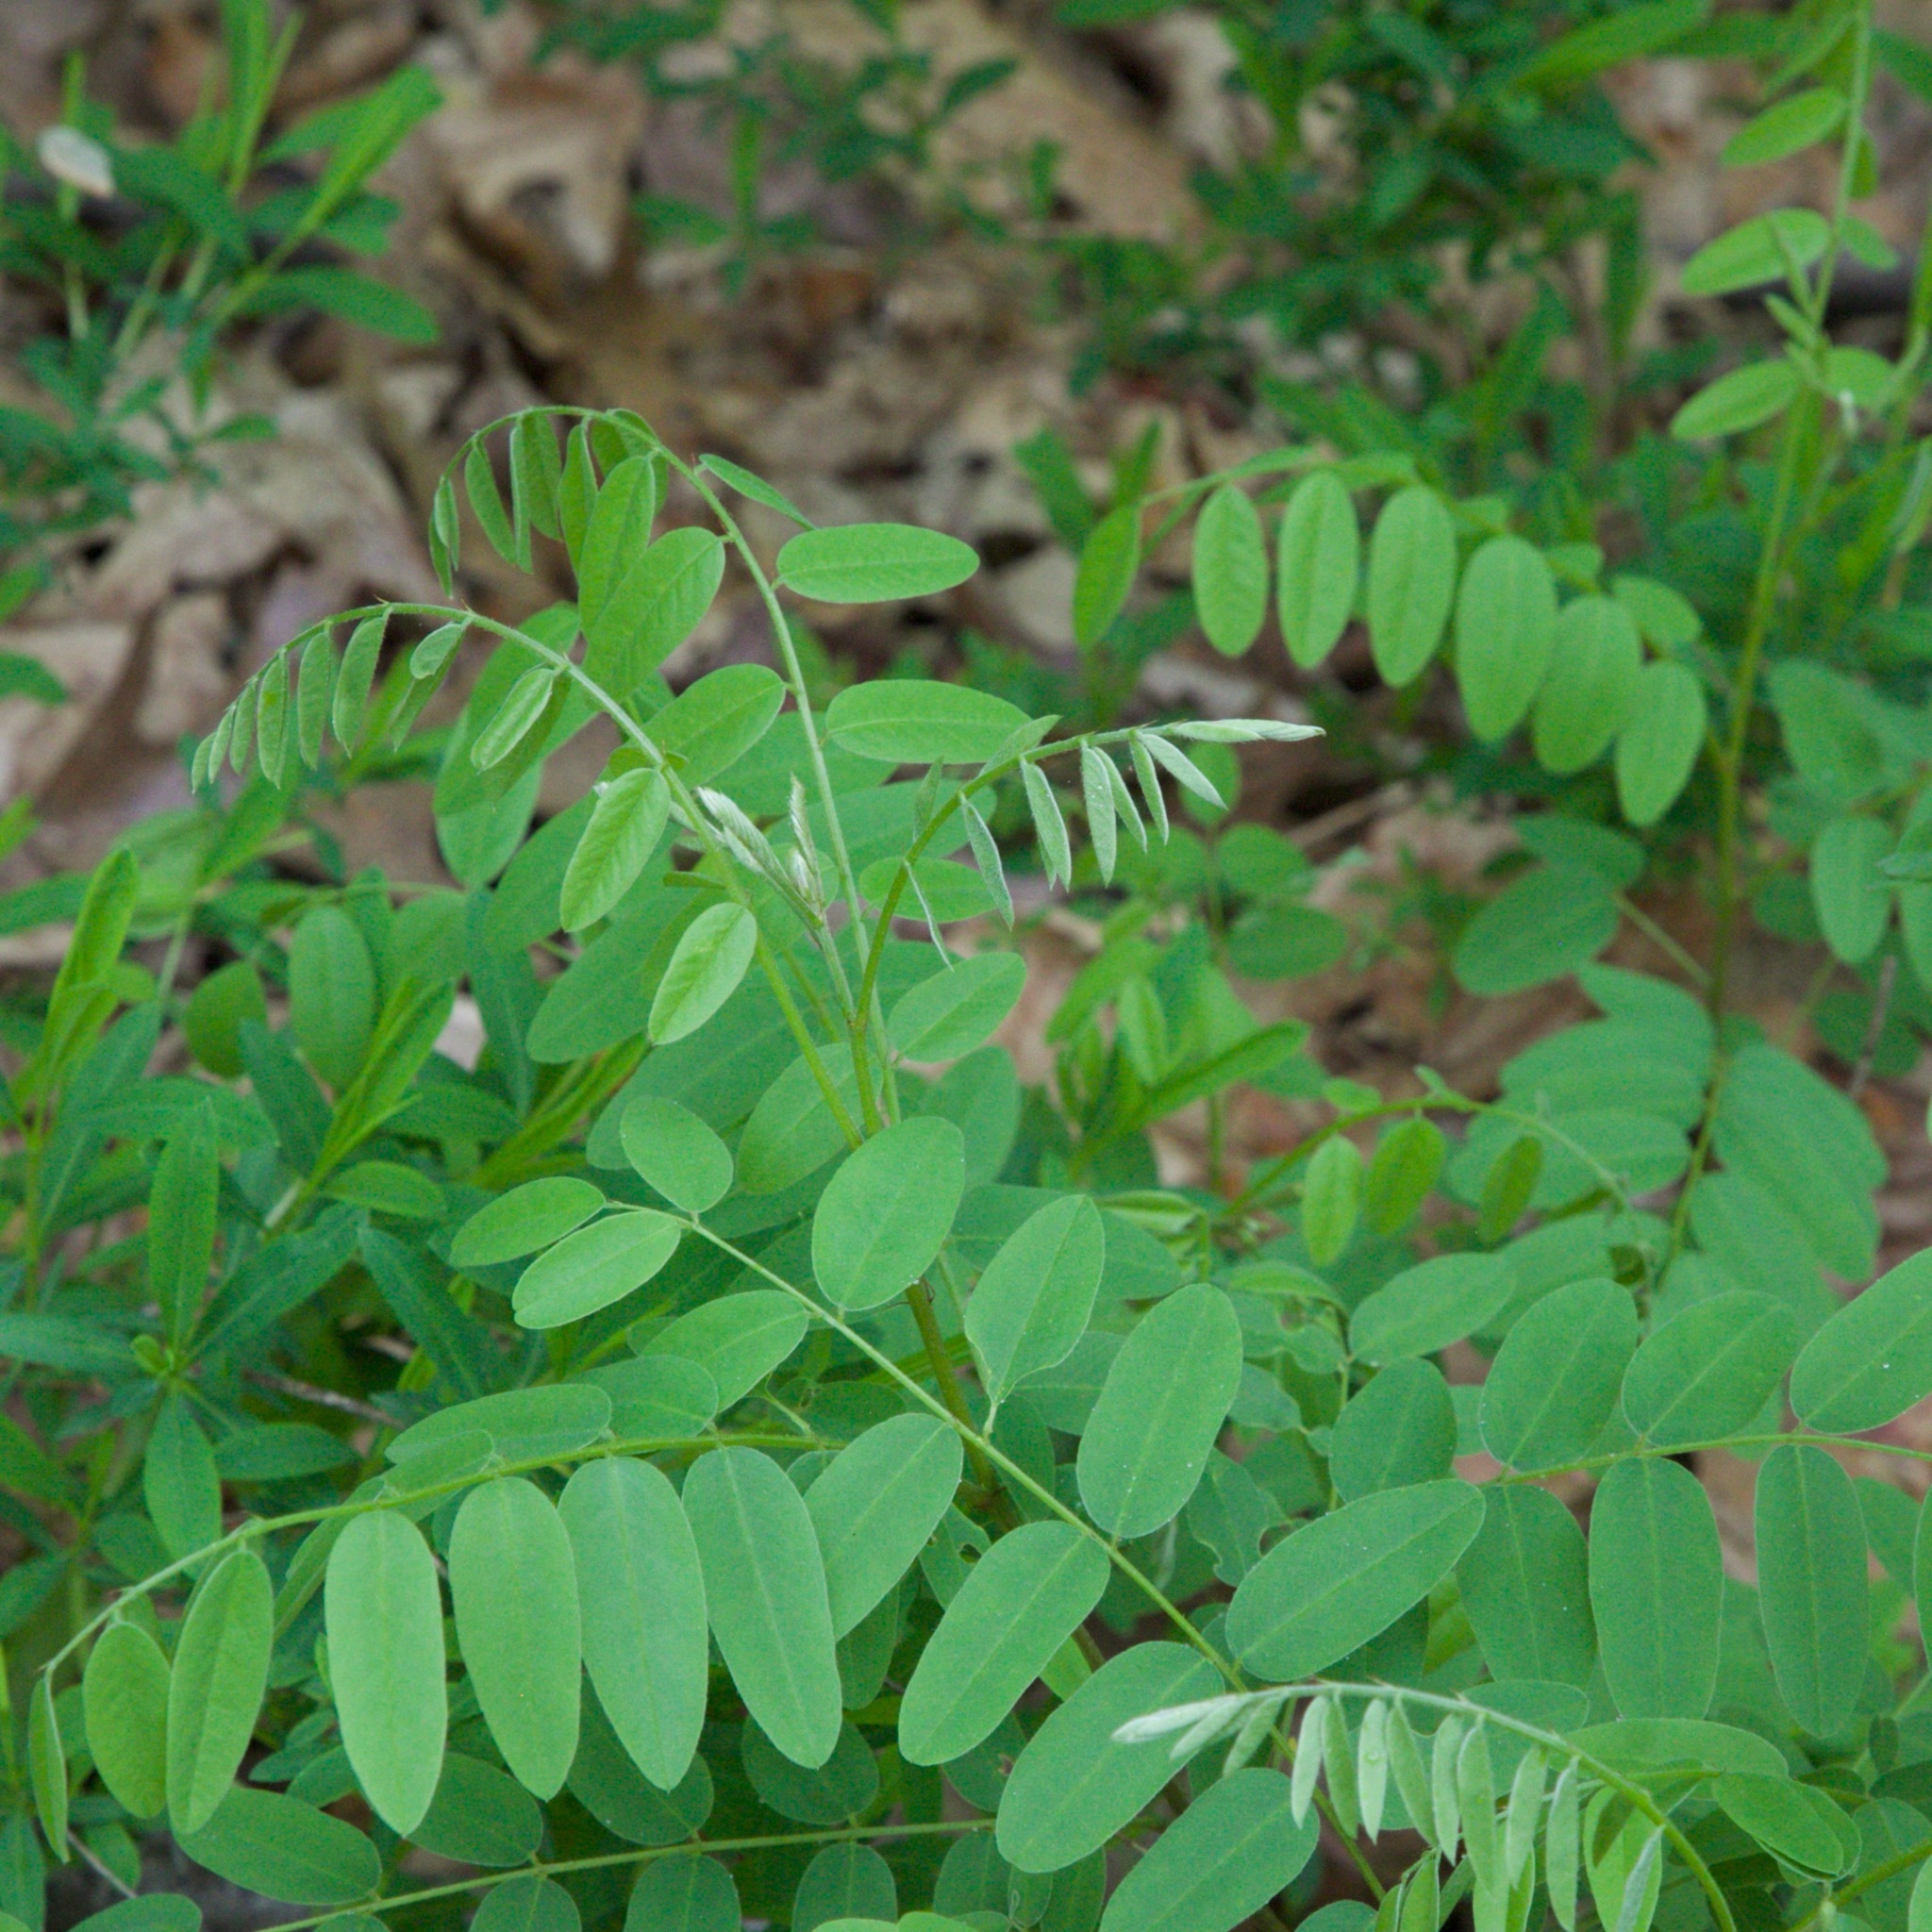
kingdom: Plantae
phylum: Tracheophyta
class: Magnoliopsida
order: Fabales
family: Fabaceae
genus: Amorpha
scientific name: Amorpha fruticosa
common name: False indigo
